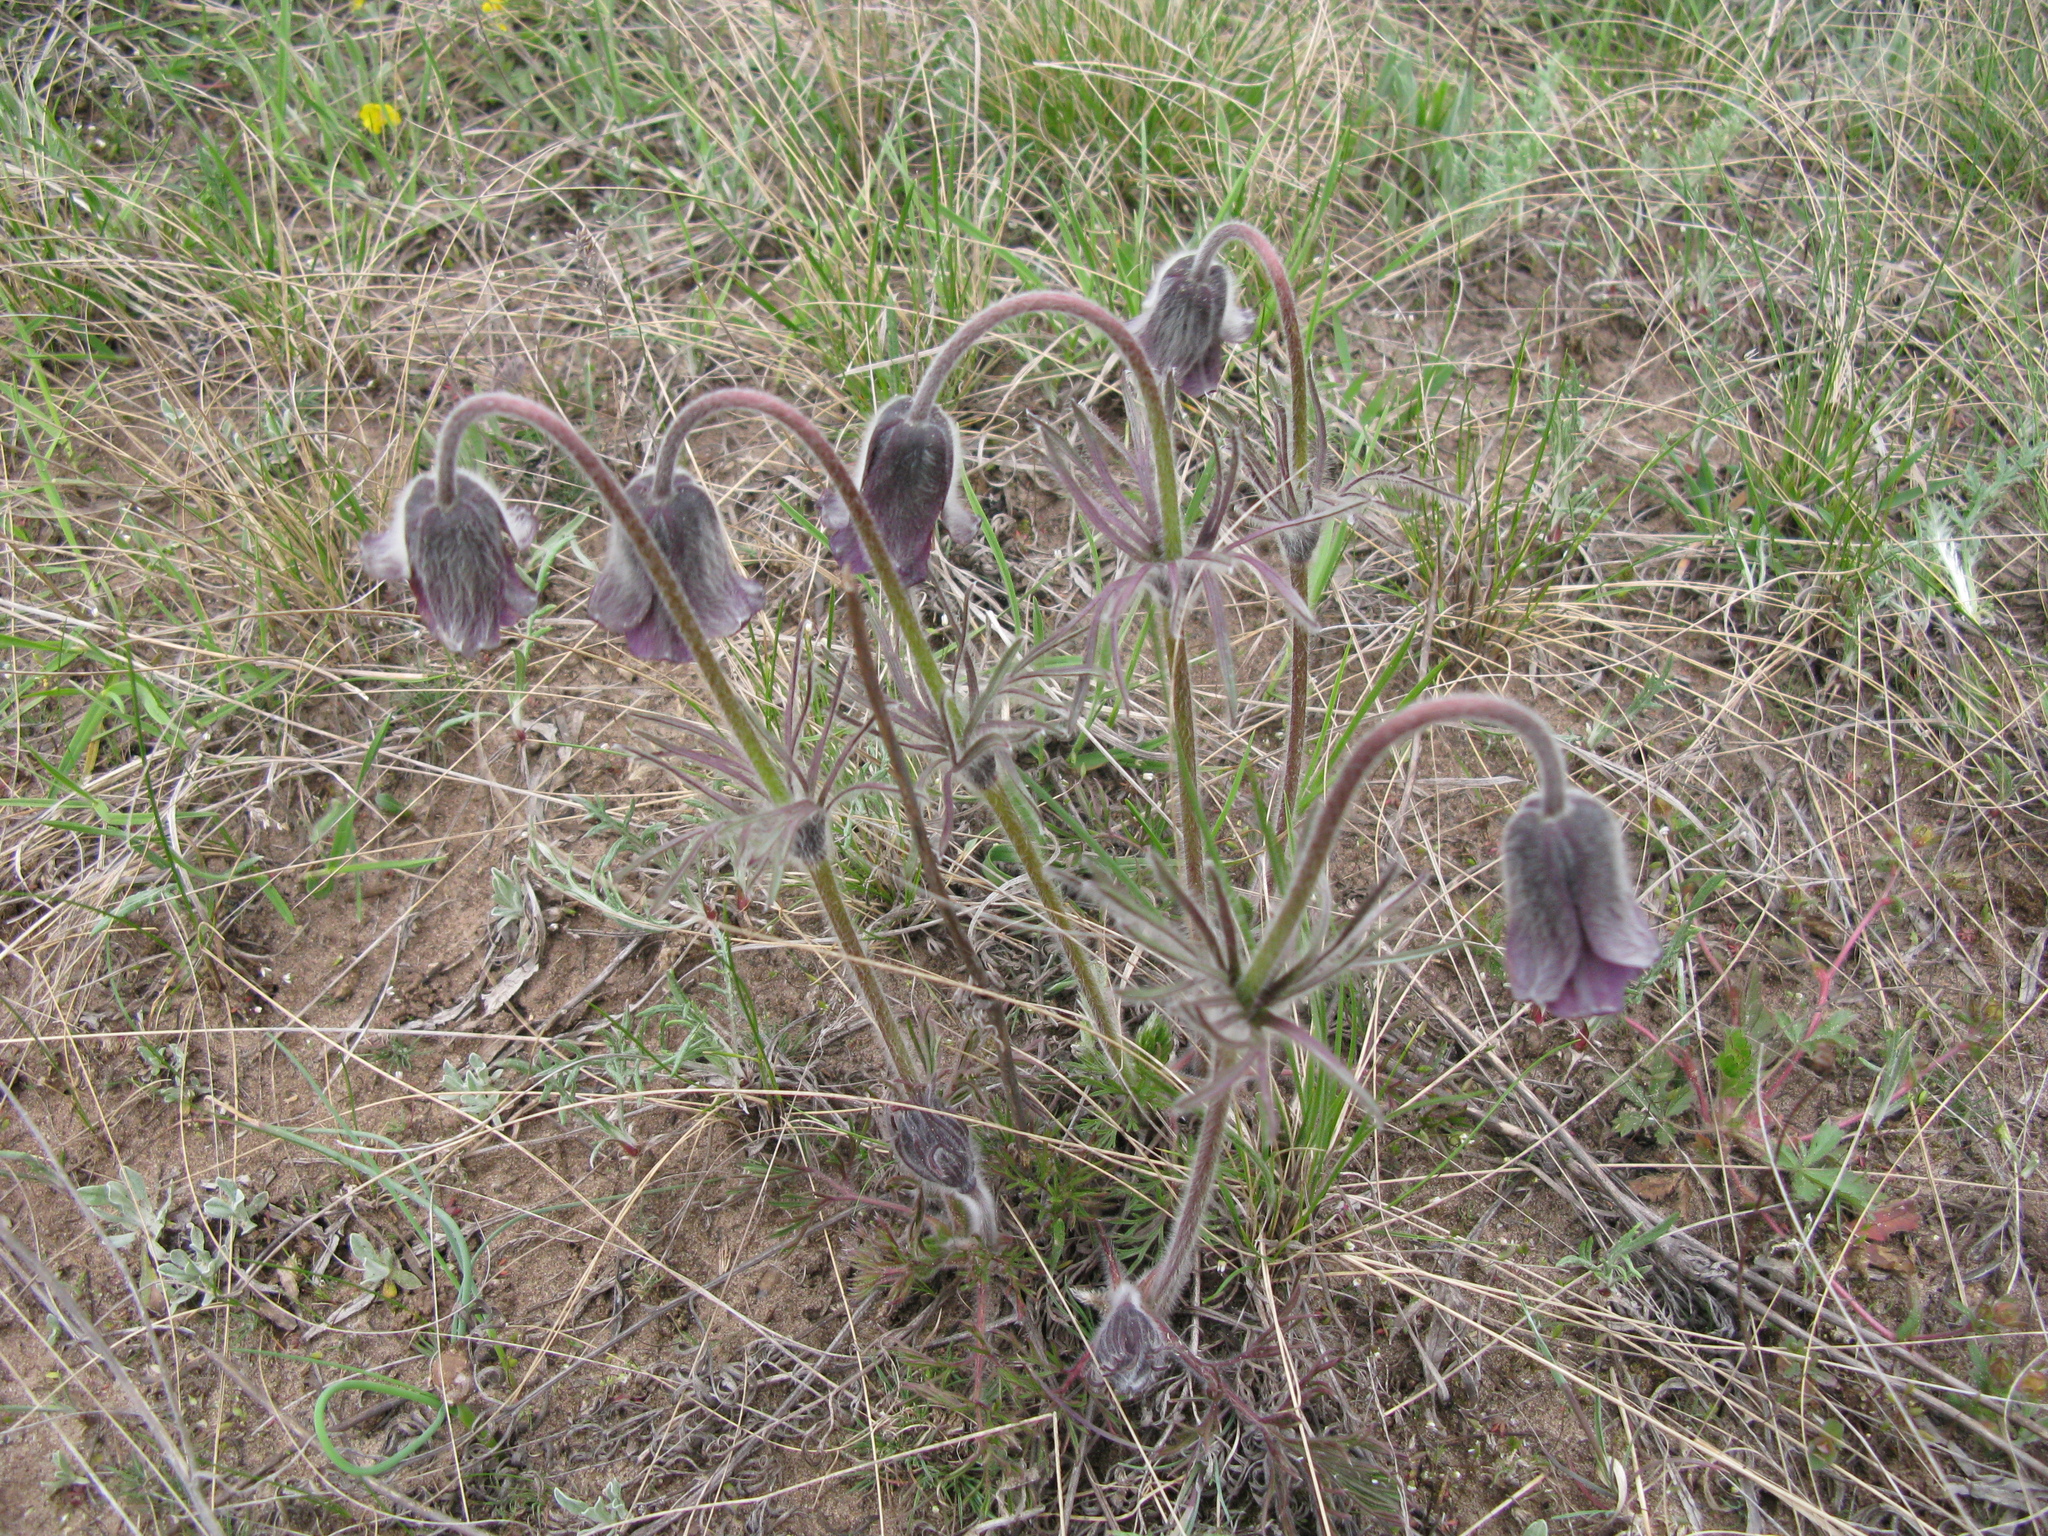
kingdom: Plantae
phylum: Tracheophyta
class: Magnoliopsida
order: Ranunculales
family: Ranunculaceae
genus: Pulsatilla
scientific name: Pulsatilla pratensis
